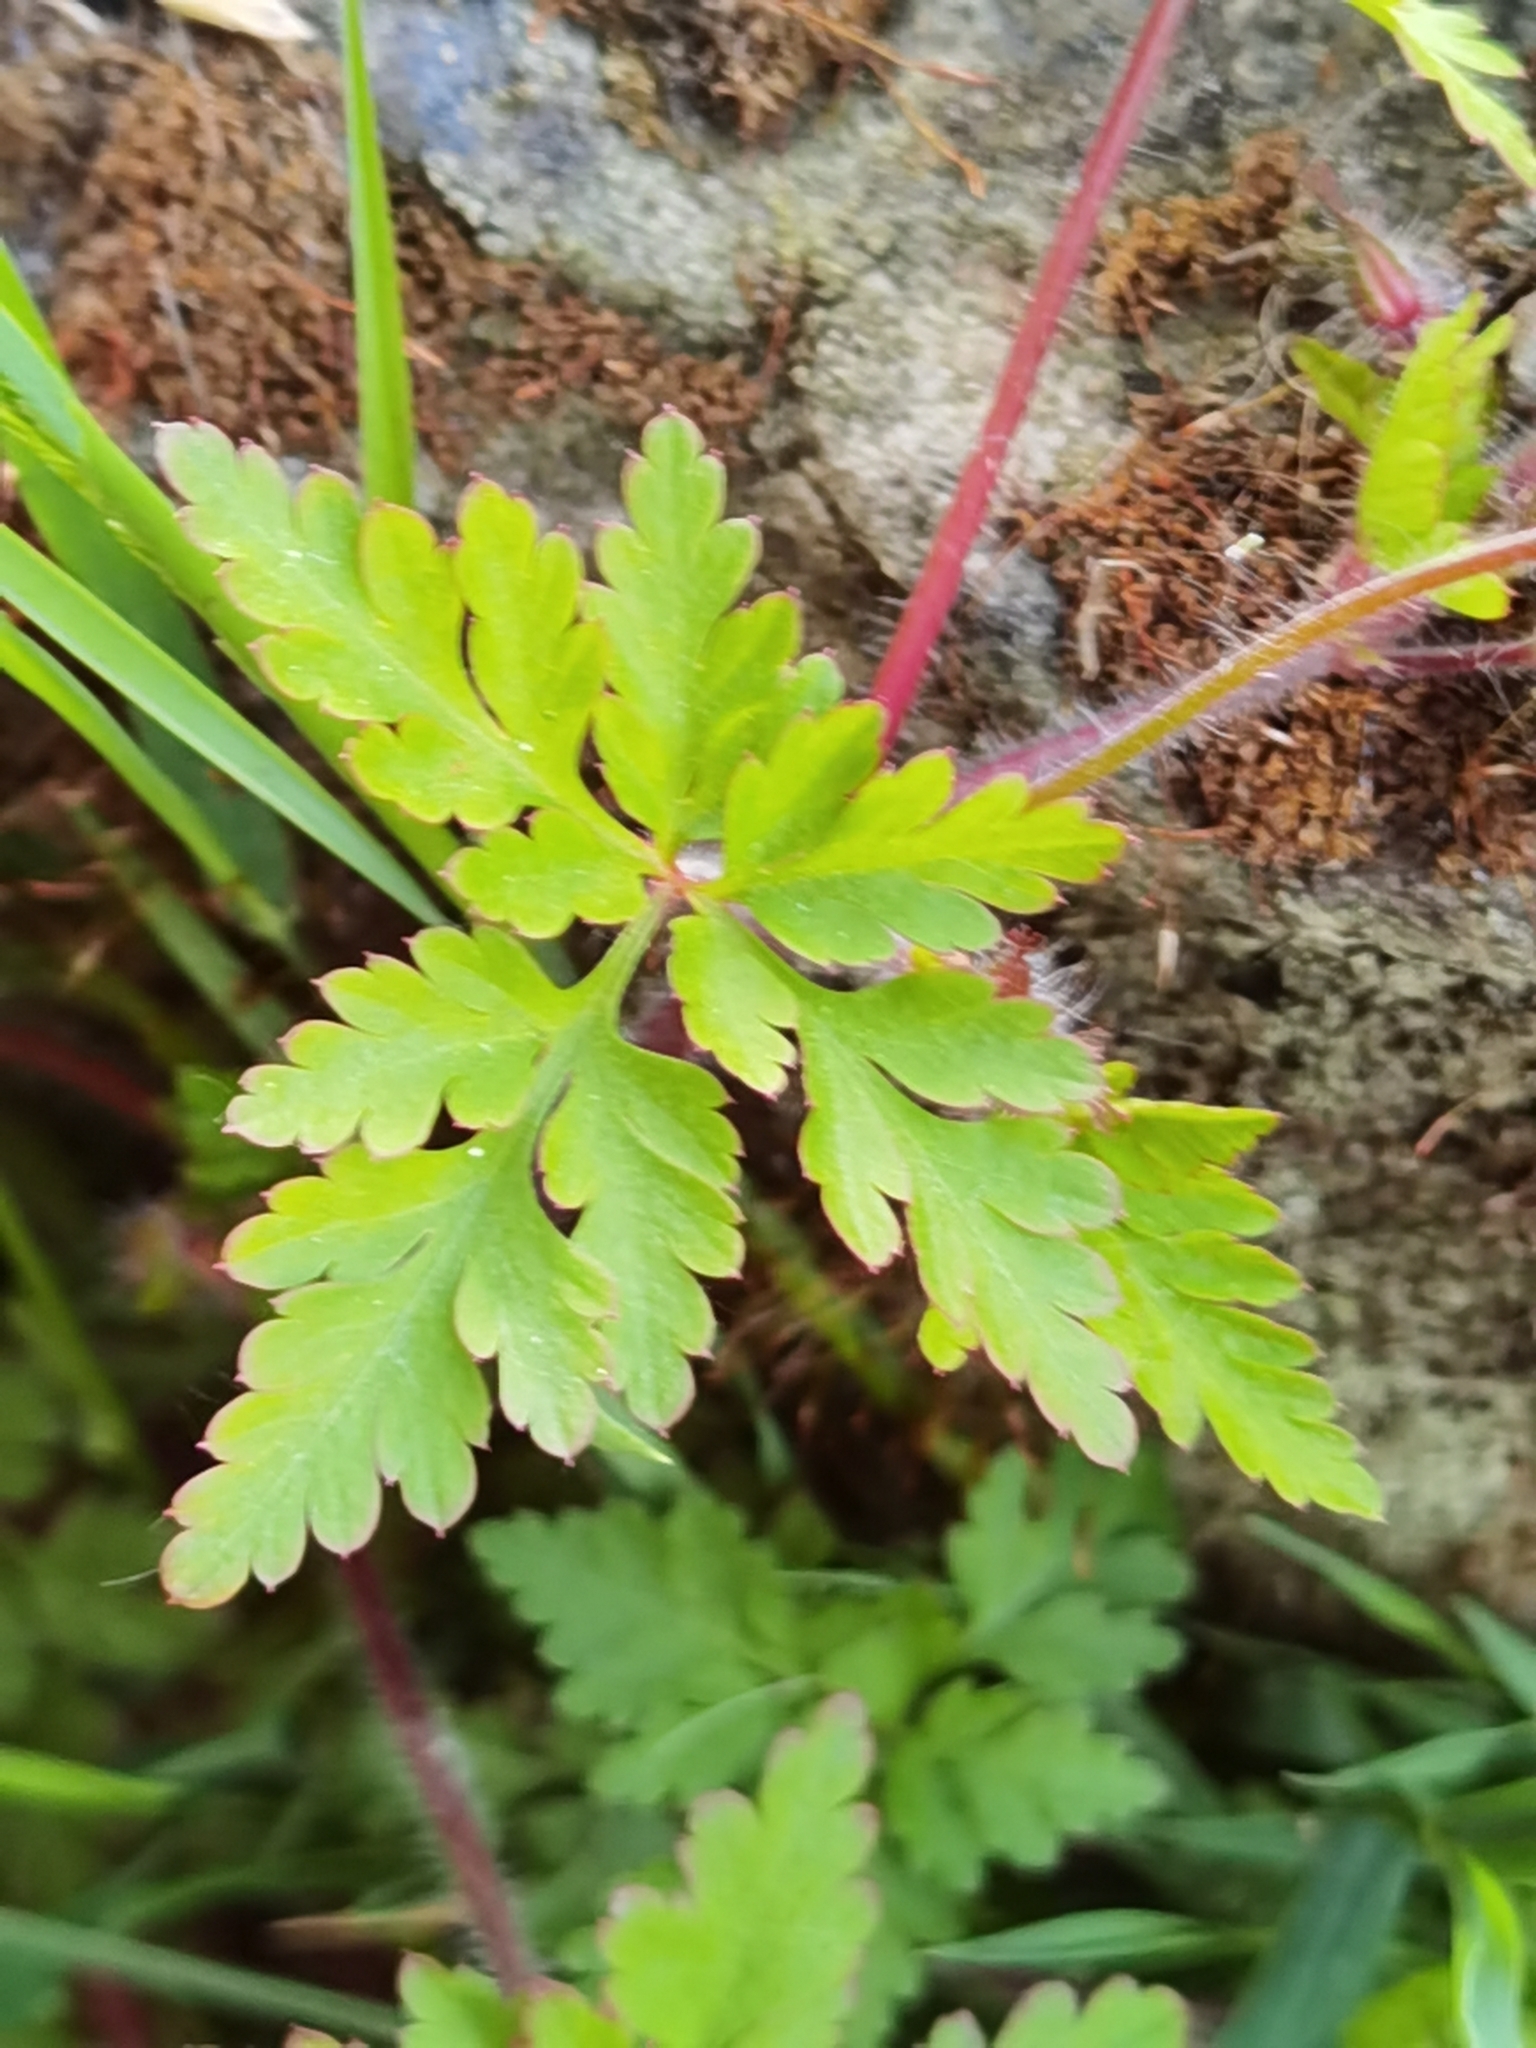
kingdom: Plantae
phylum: Tracheophyta
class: Magnoliopsida
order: Geraniales
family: Geraniaceae
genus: Geranium
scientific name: Geranium robertianum
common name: Herb-robert
